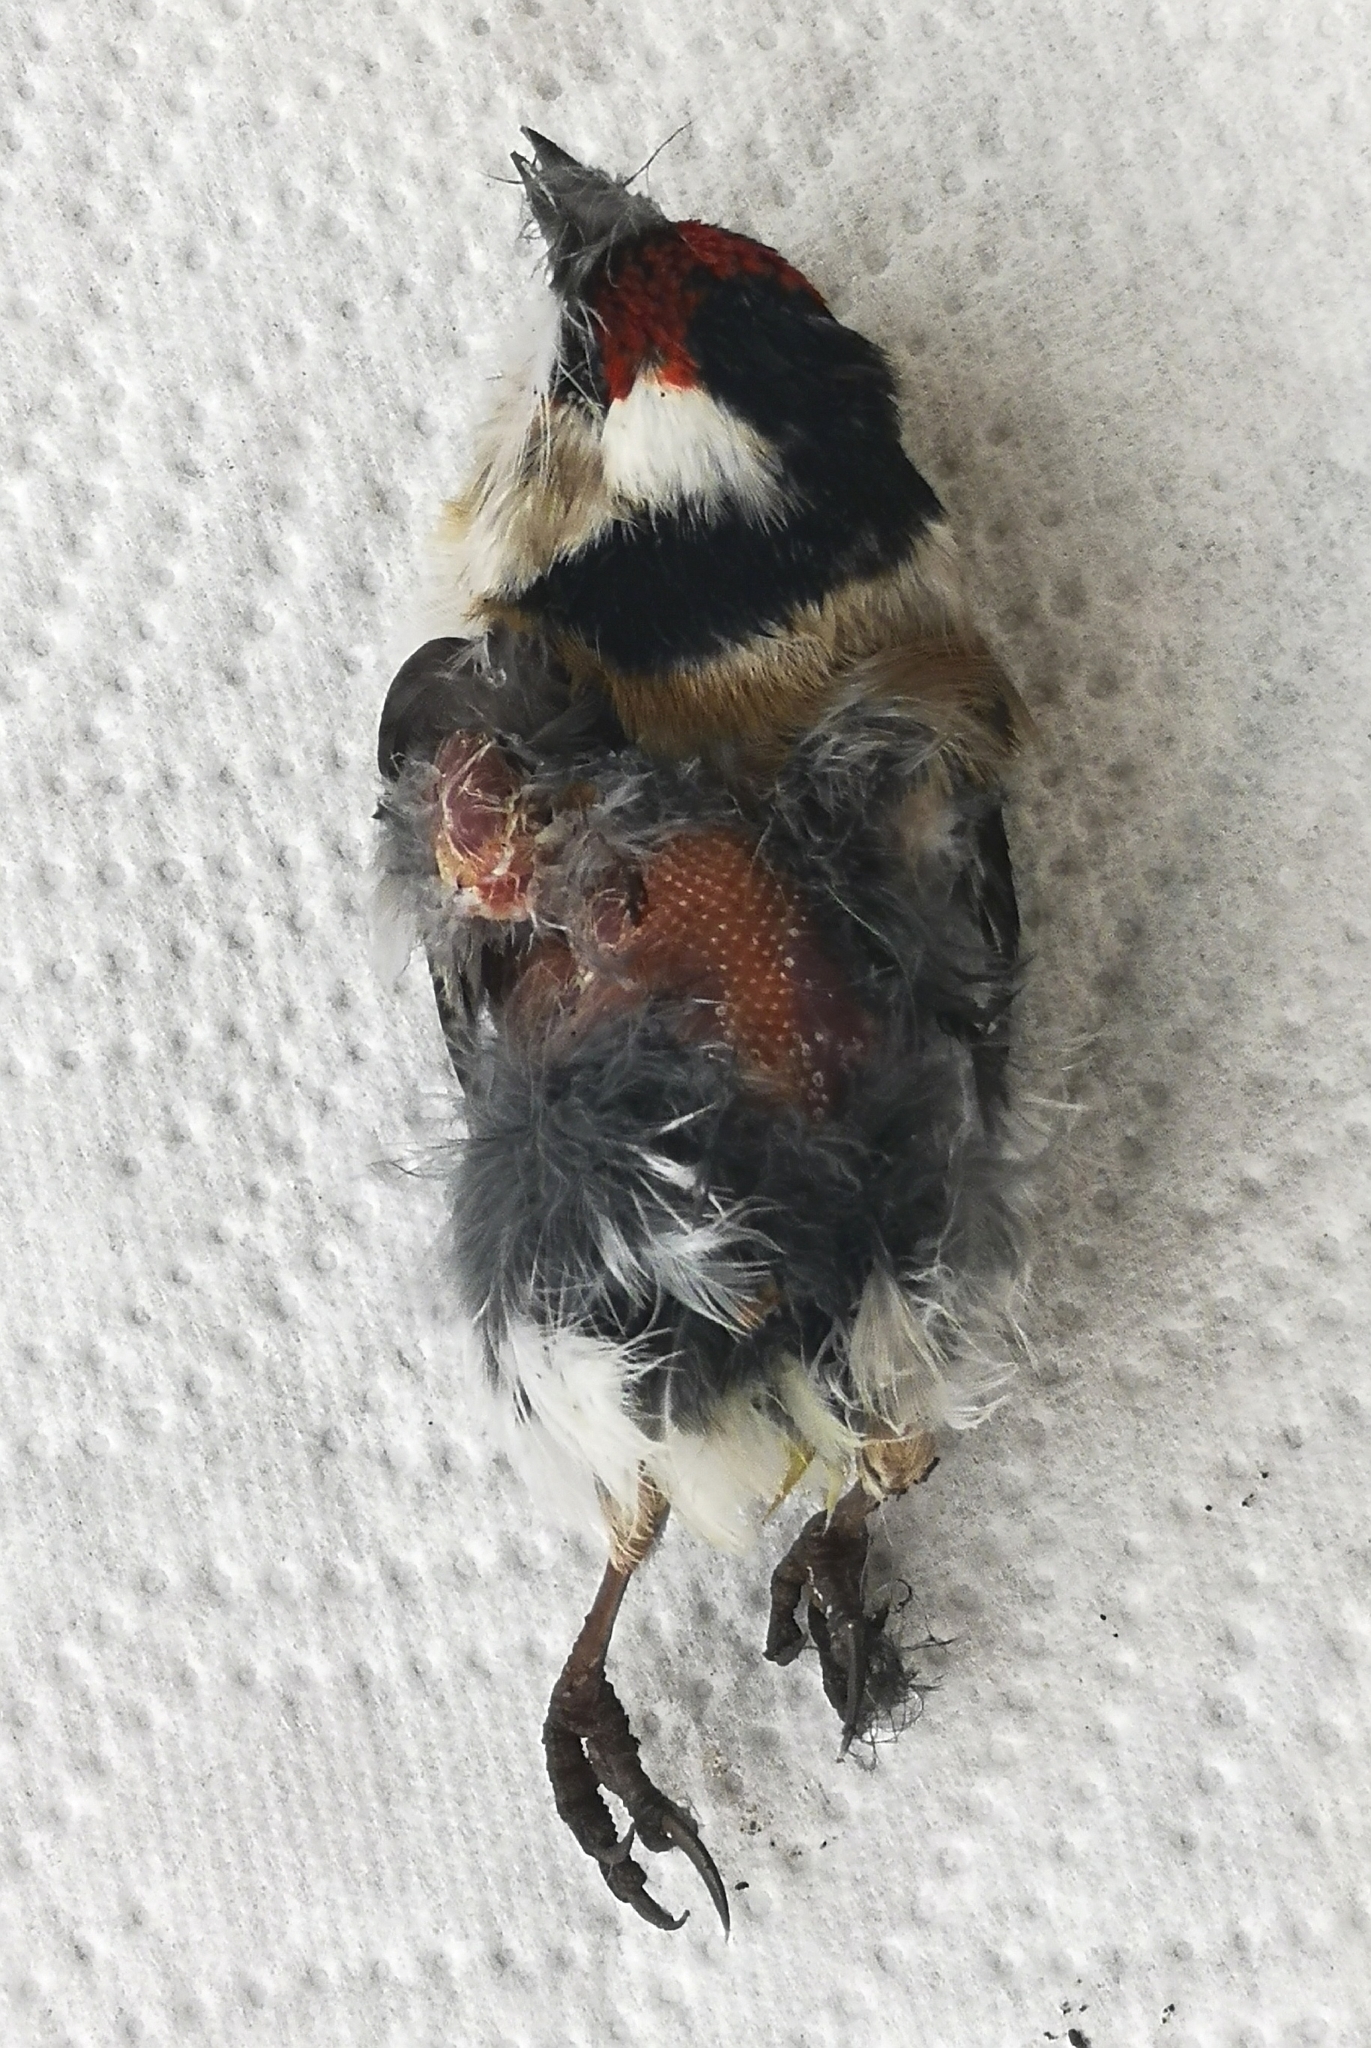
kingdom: Animalia
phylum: Chordata
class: Aves
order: Passeriformes
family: Fringillidae
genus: Carduelis
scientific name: Carduelis carduelis
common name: European goldfinch
